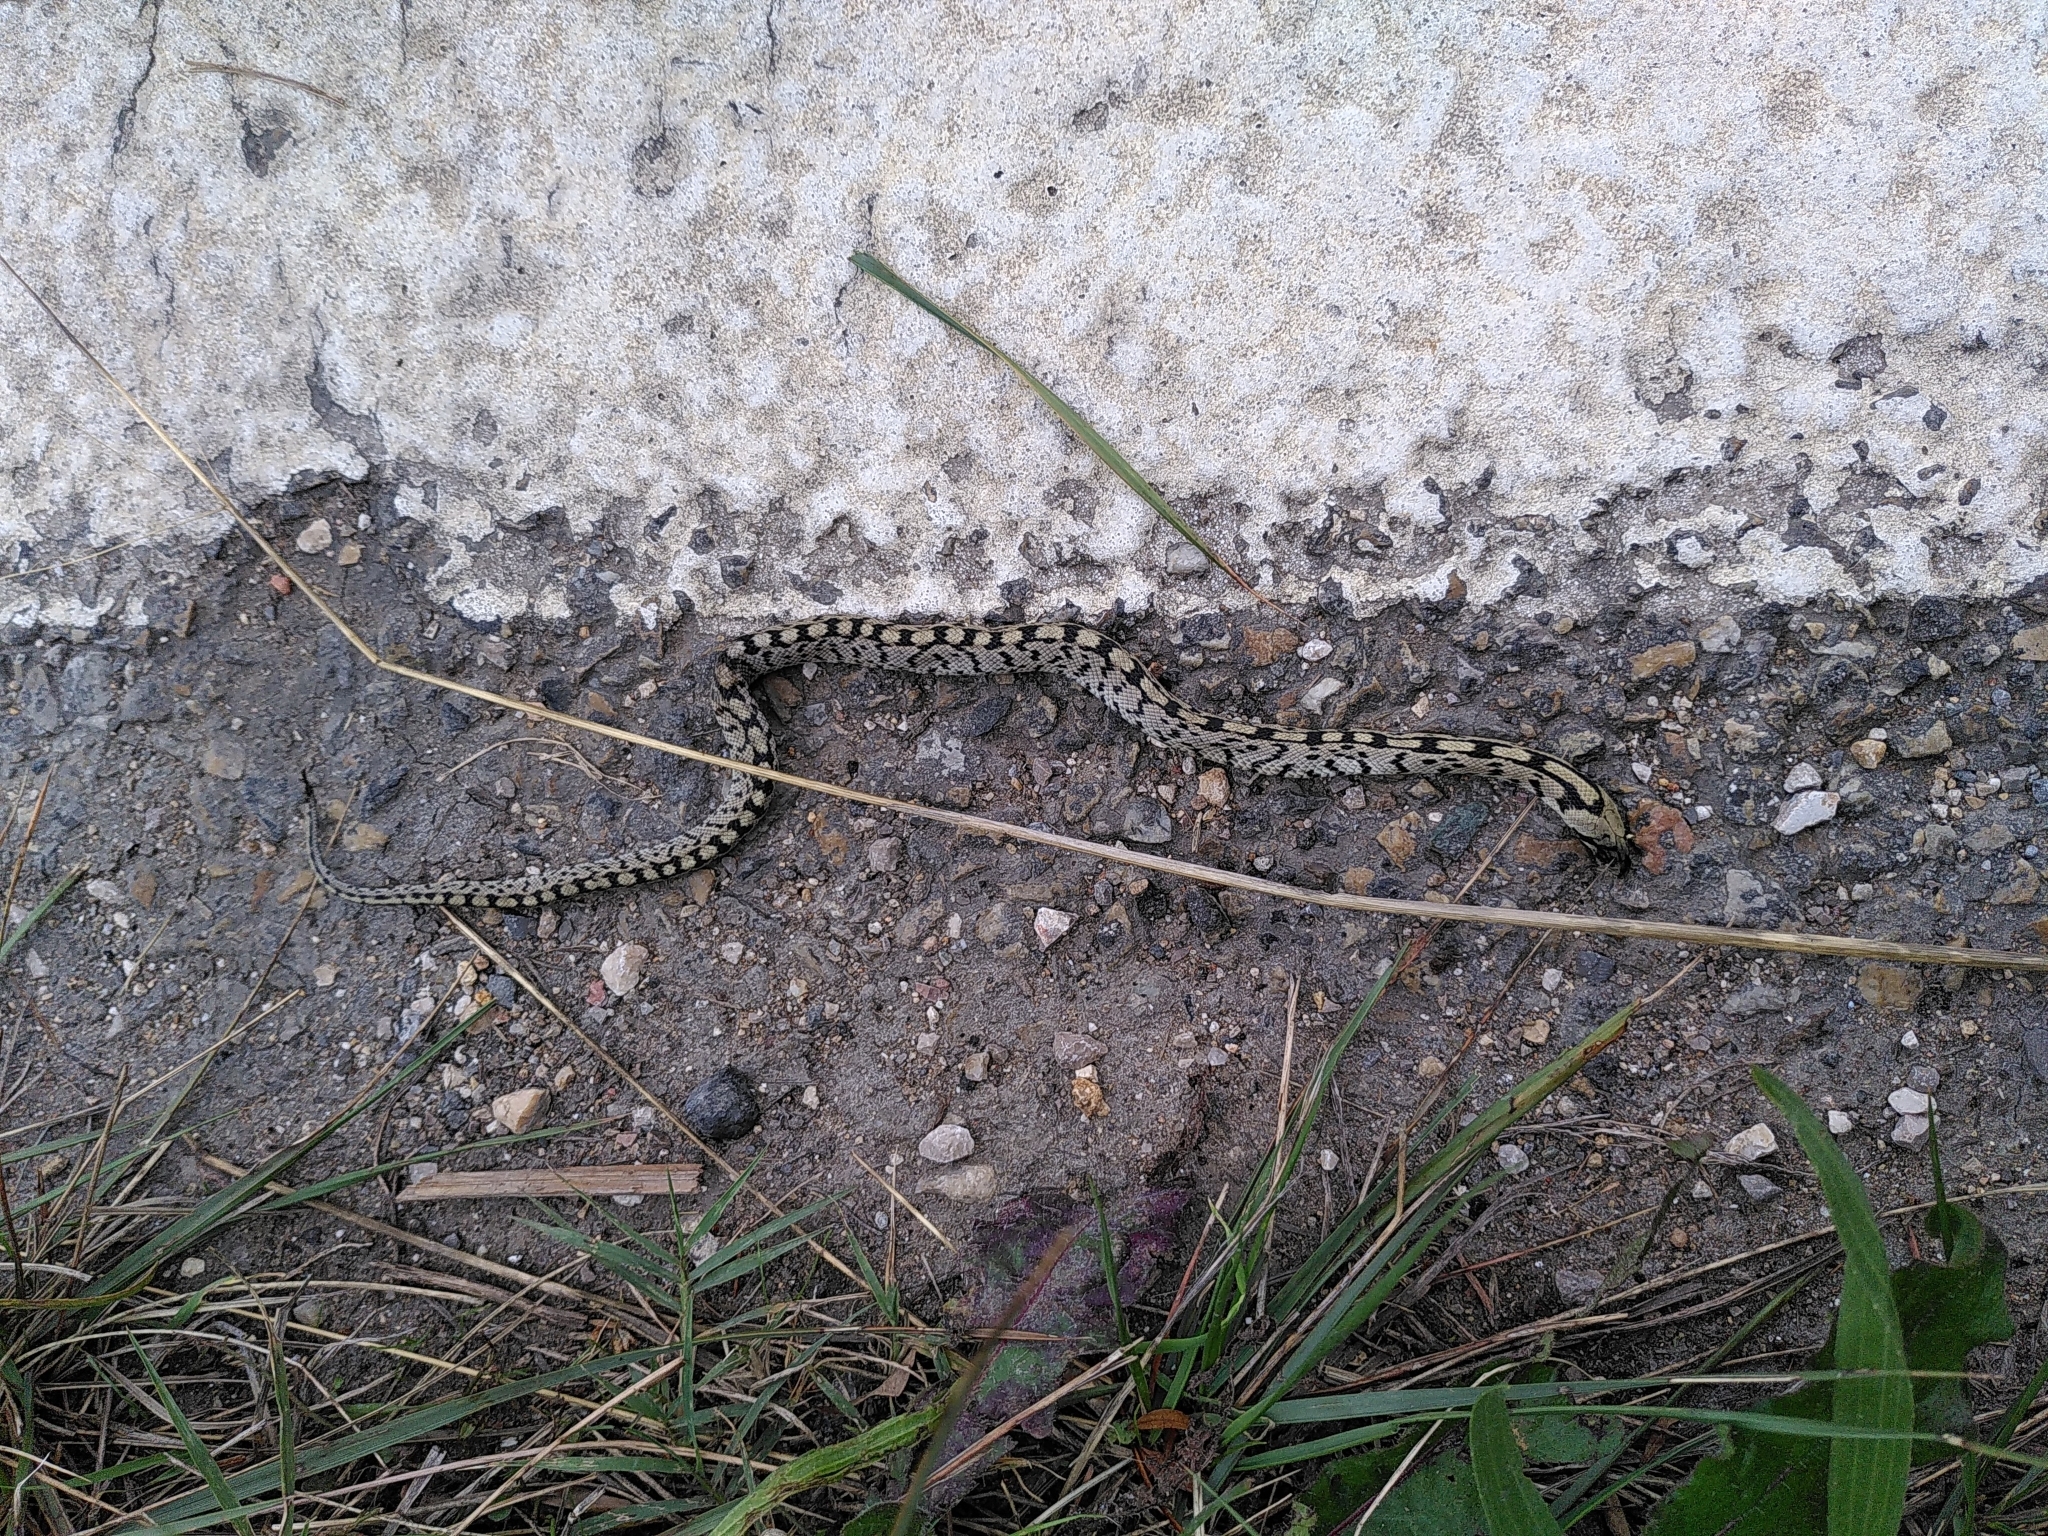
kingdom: Animalia
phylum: Chordata
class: Squamata
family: Colubridae
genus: Zamenis
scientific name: Zamenis scalaris
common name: Ladder snakes
